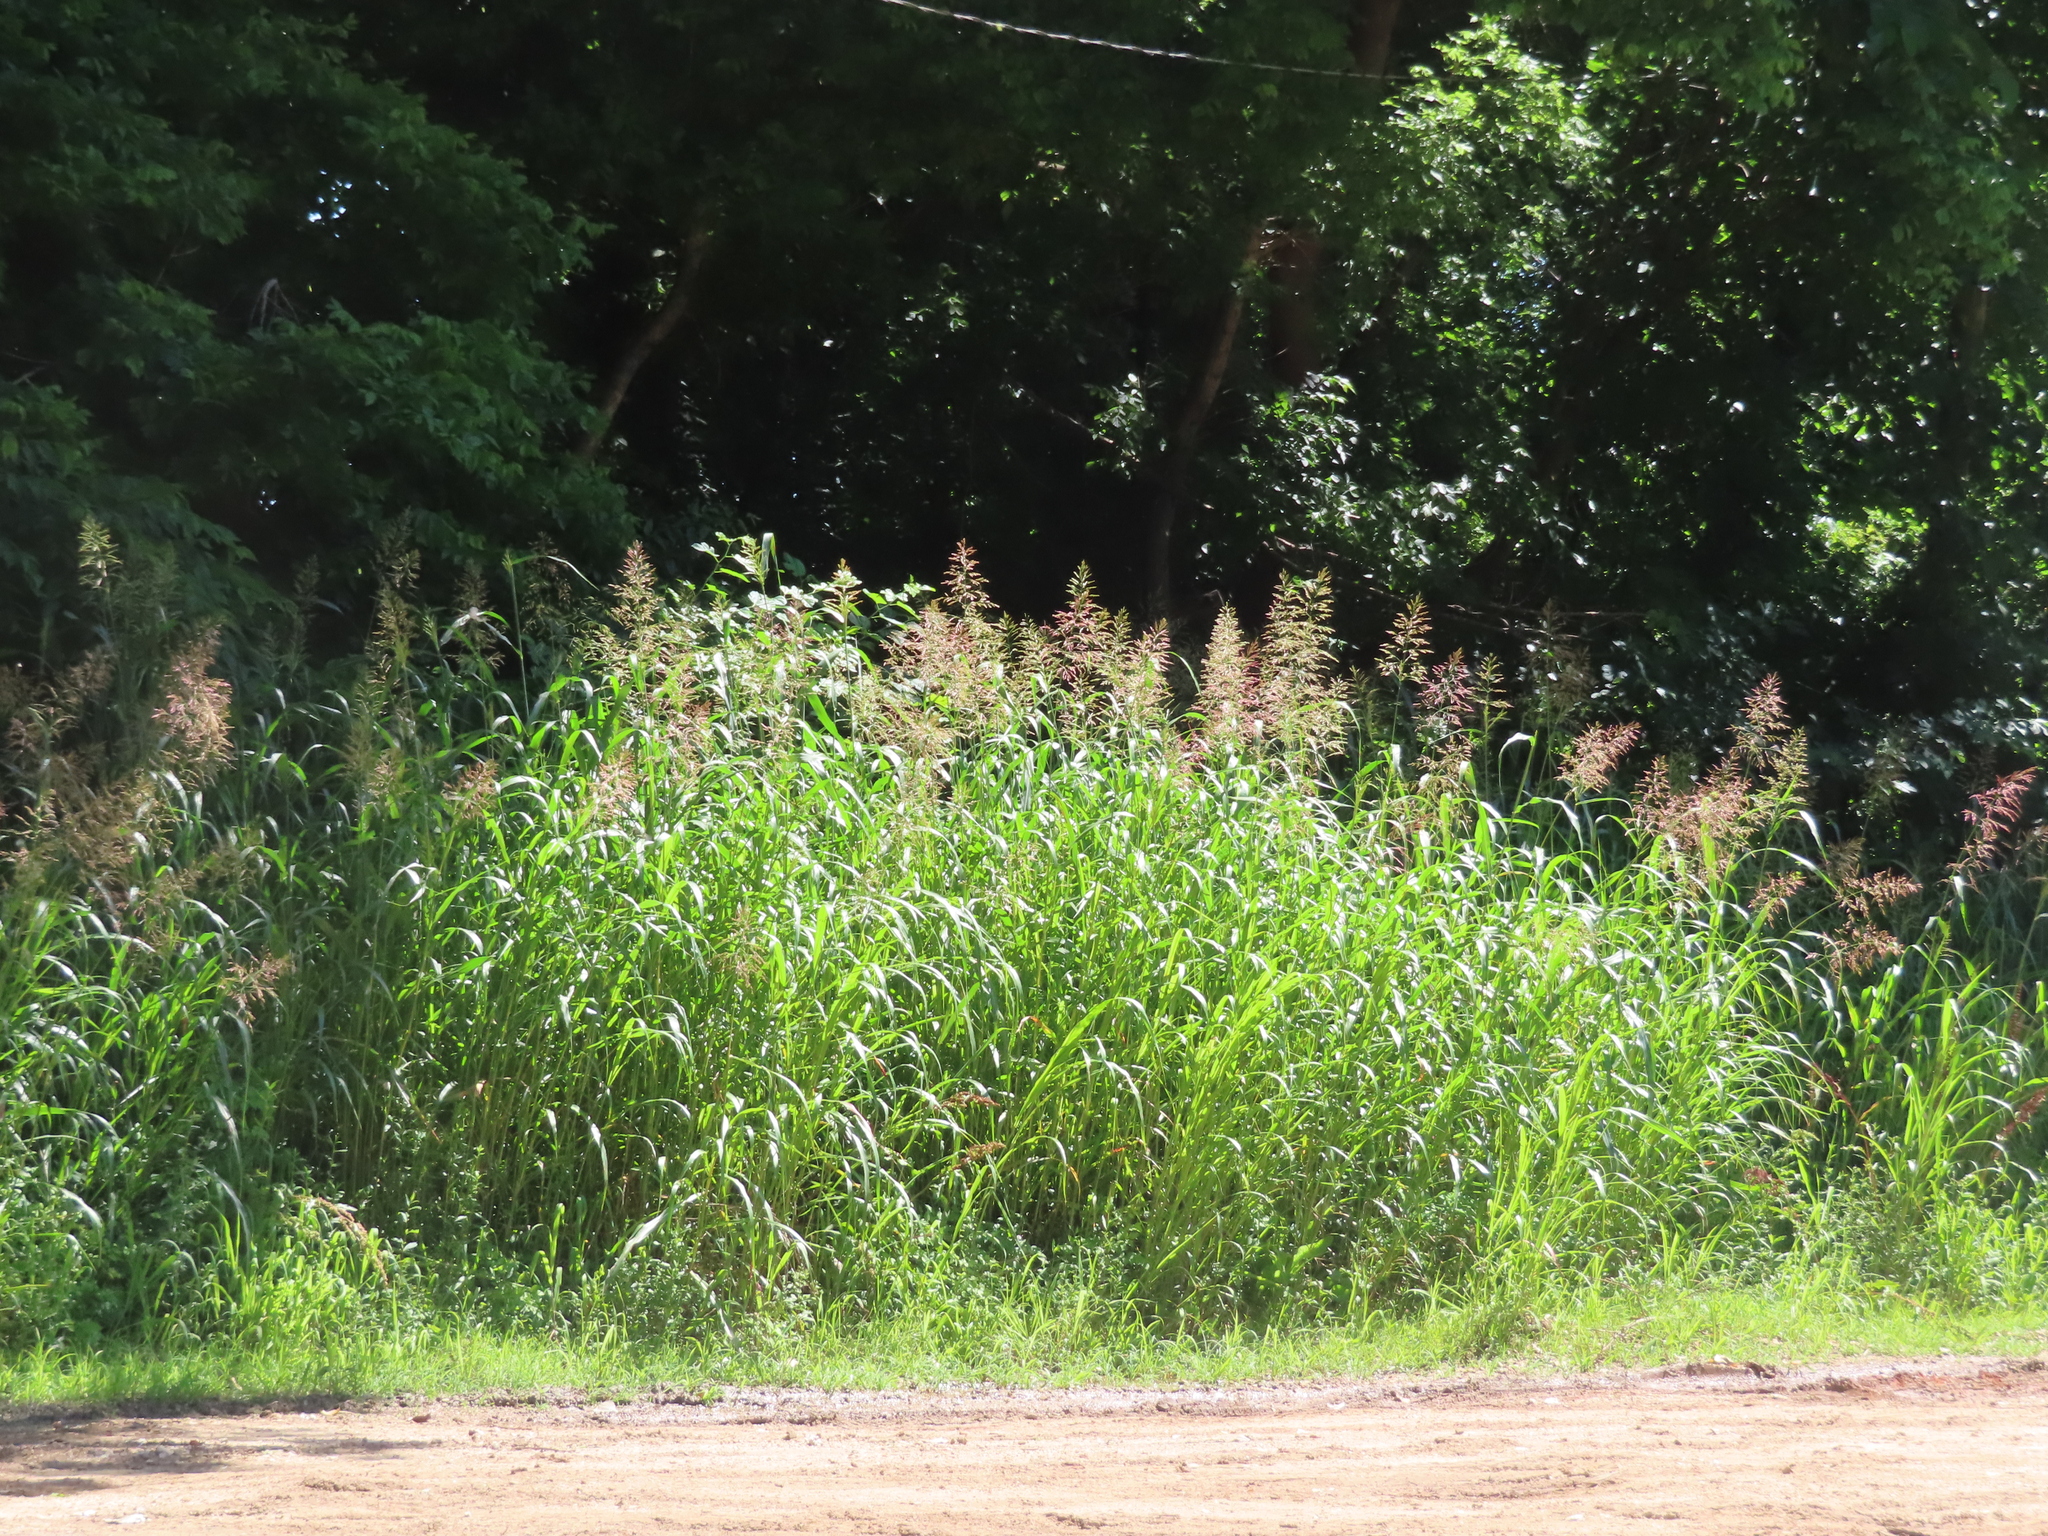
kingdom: Plantae
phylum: Tracheophyta
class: Liliopsida
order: Poales
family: Poaceae
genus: Sorghum
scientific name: Sorghum halepense
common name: Johnson-grass
